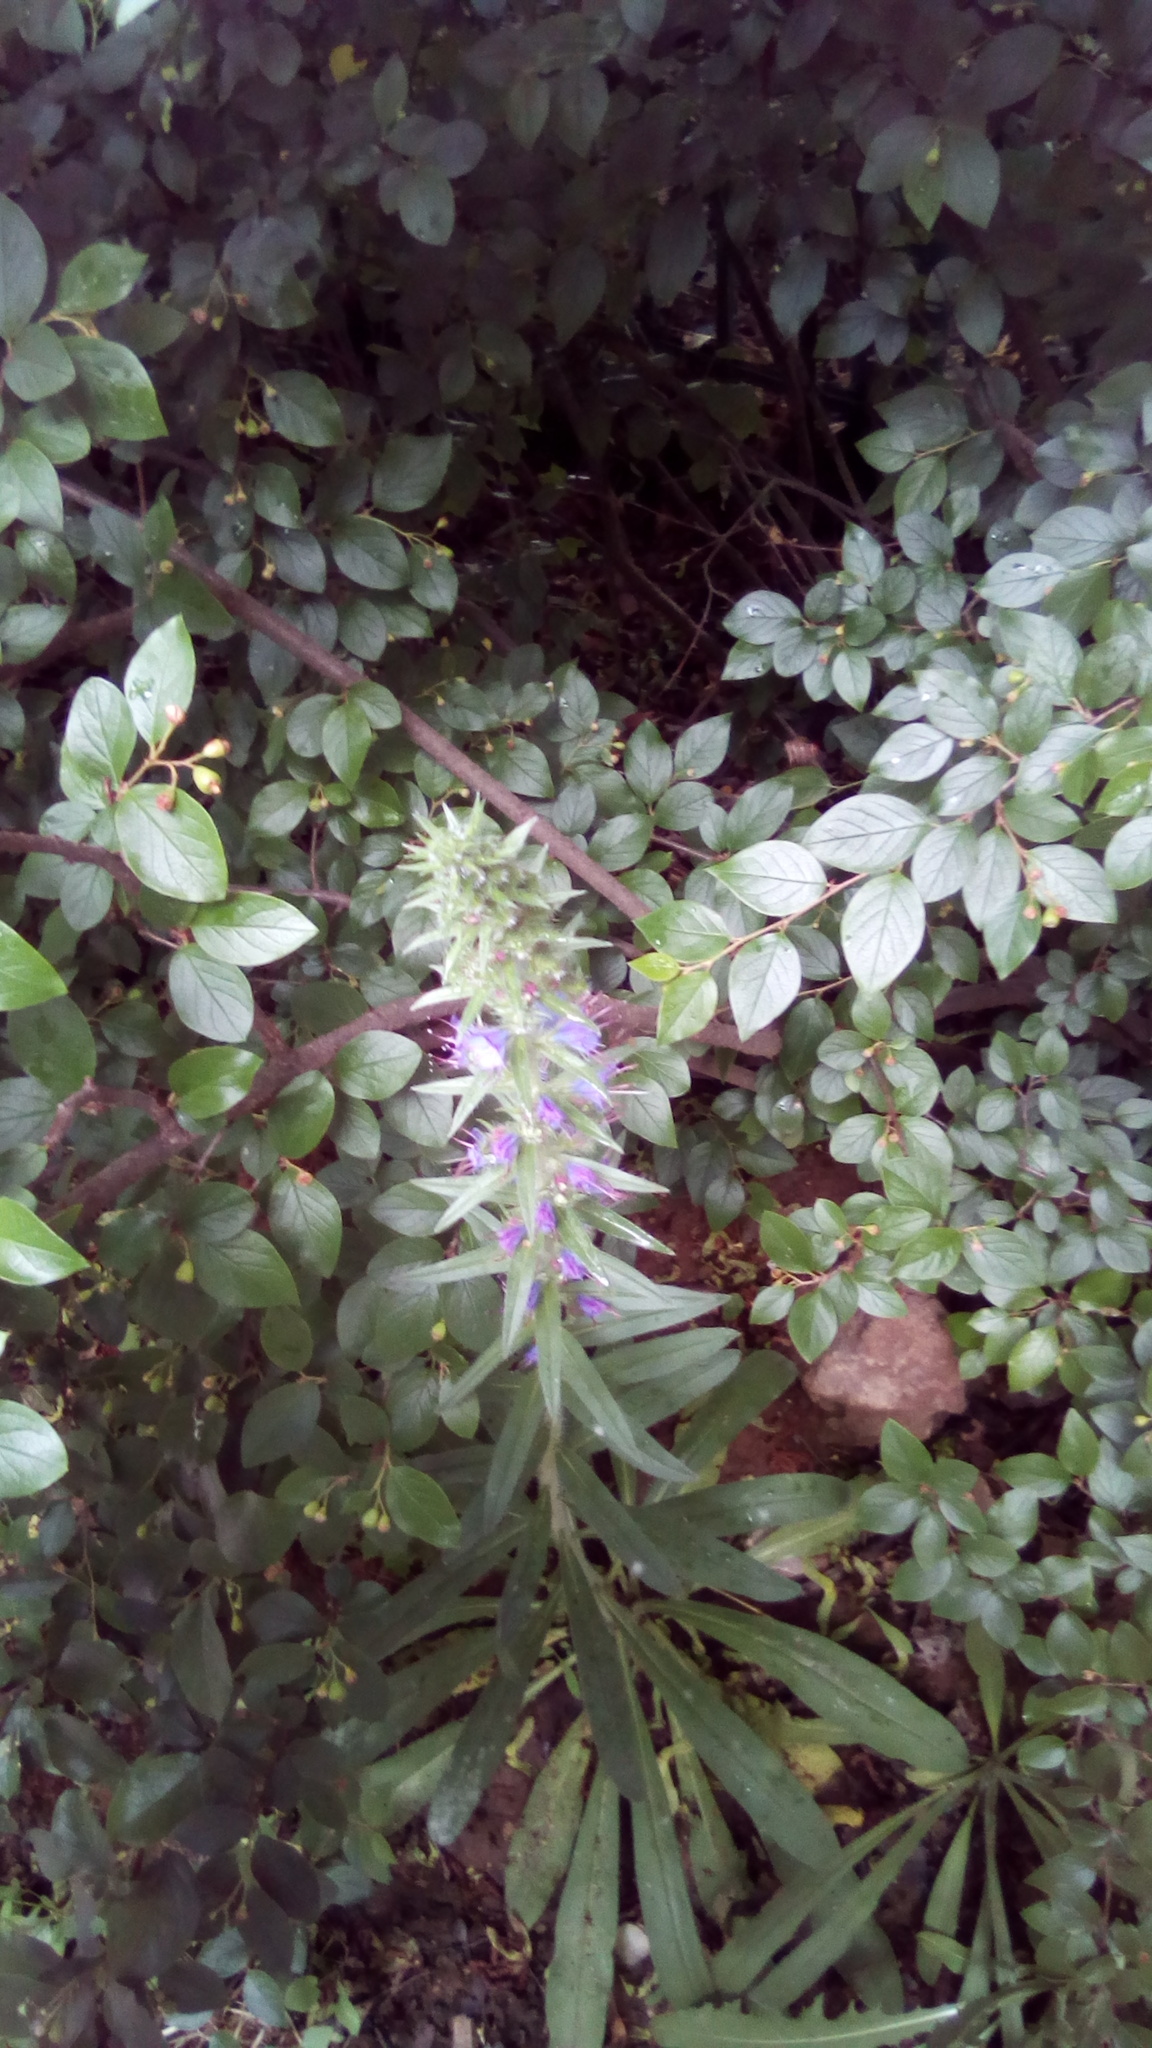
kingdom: Plantae
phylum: Tracheophyta
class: Magnoliopsida
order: Boraginales
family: Boraginaceae
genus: Echium
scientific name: Echium vulgare
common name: Common viper's bugloss
